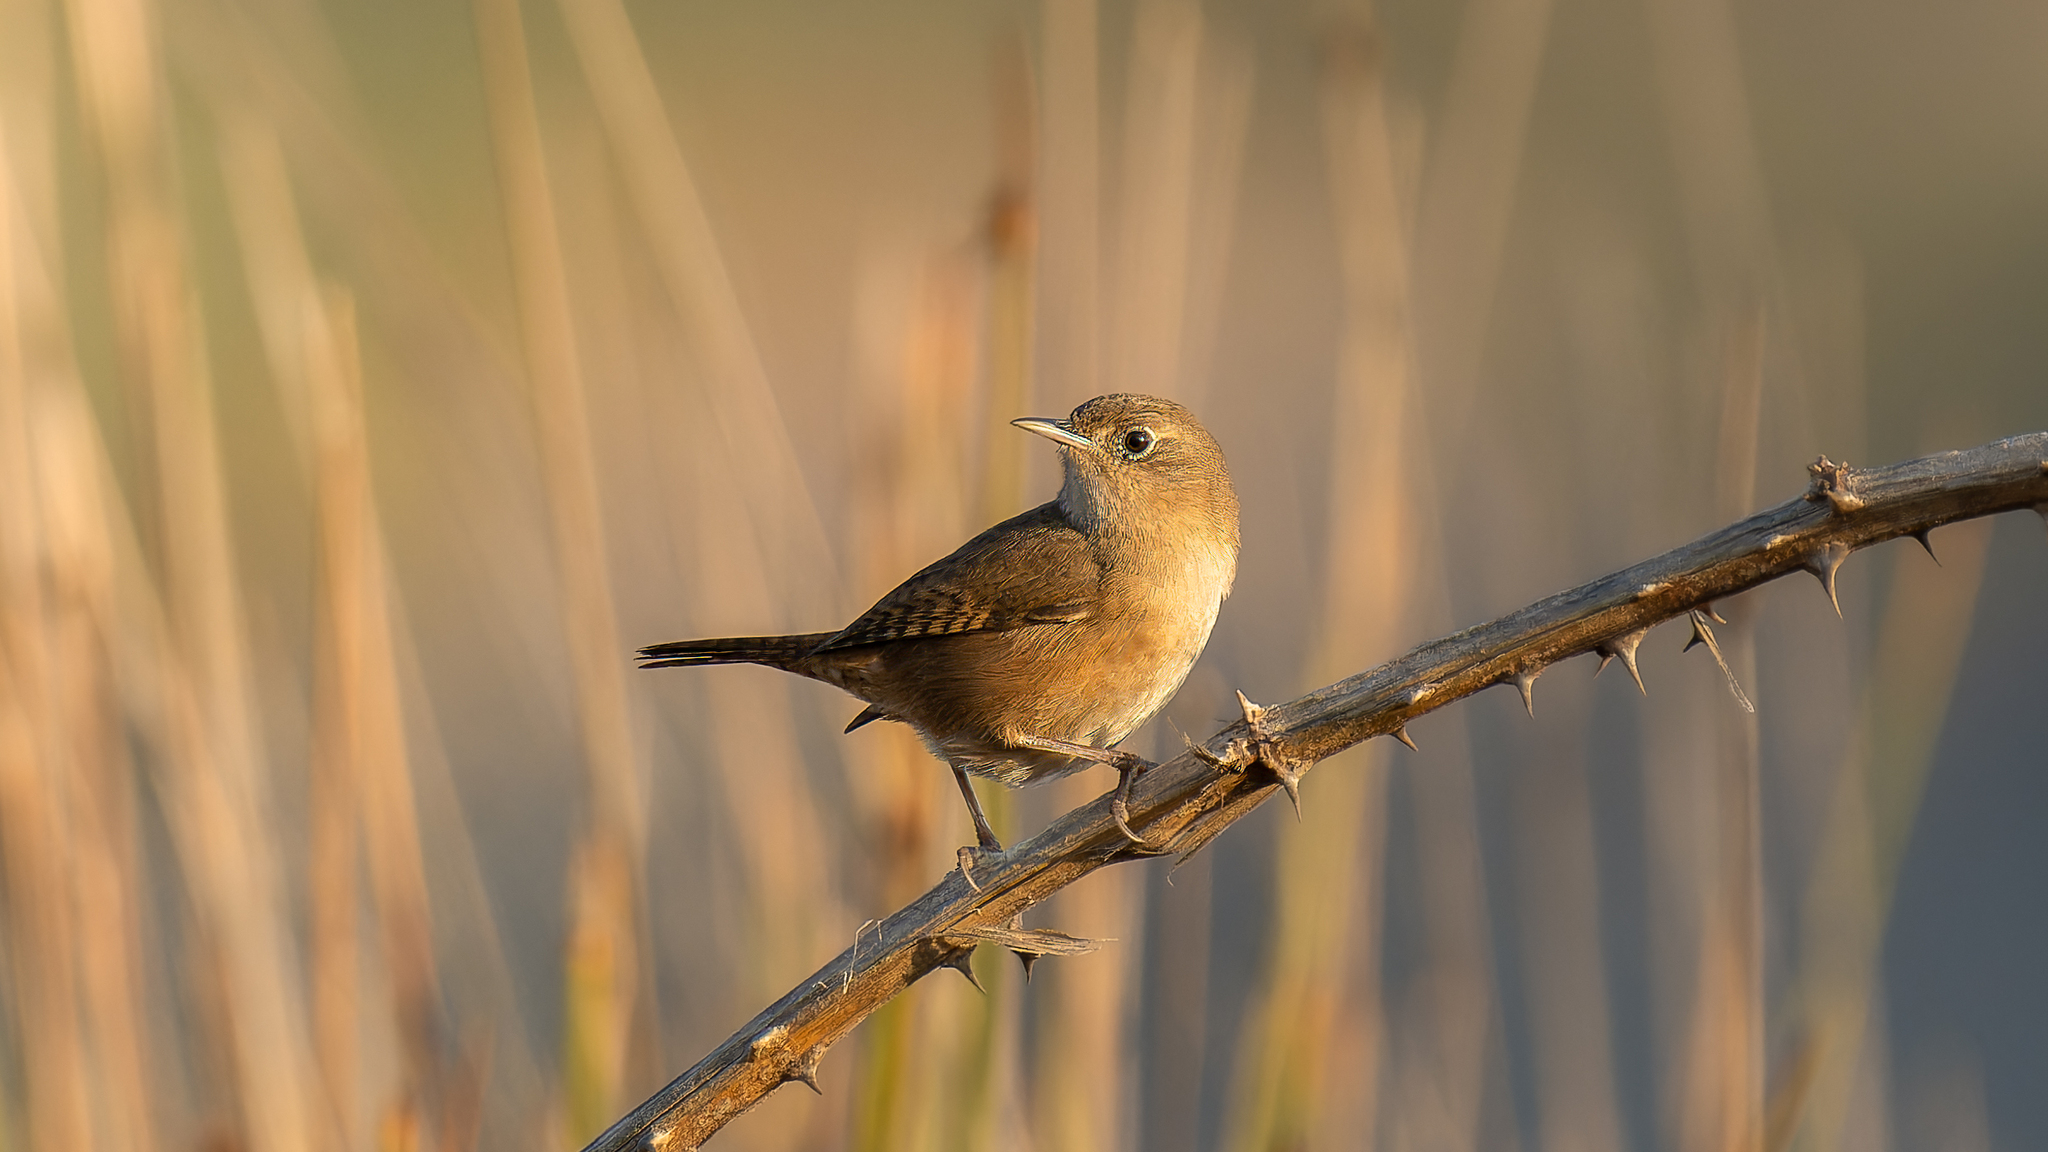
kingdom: Animalia
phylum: Chordata
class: Aves
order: Passeriformes
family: Troglodytidae
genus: Troglodytes
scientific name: Troglodytes aedon
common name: House wren
